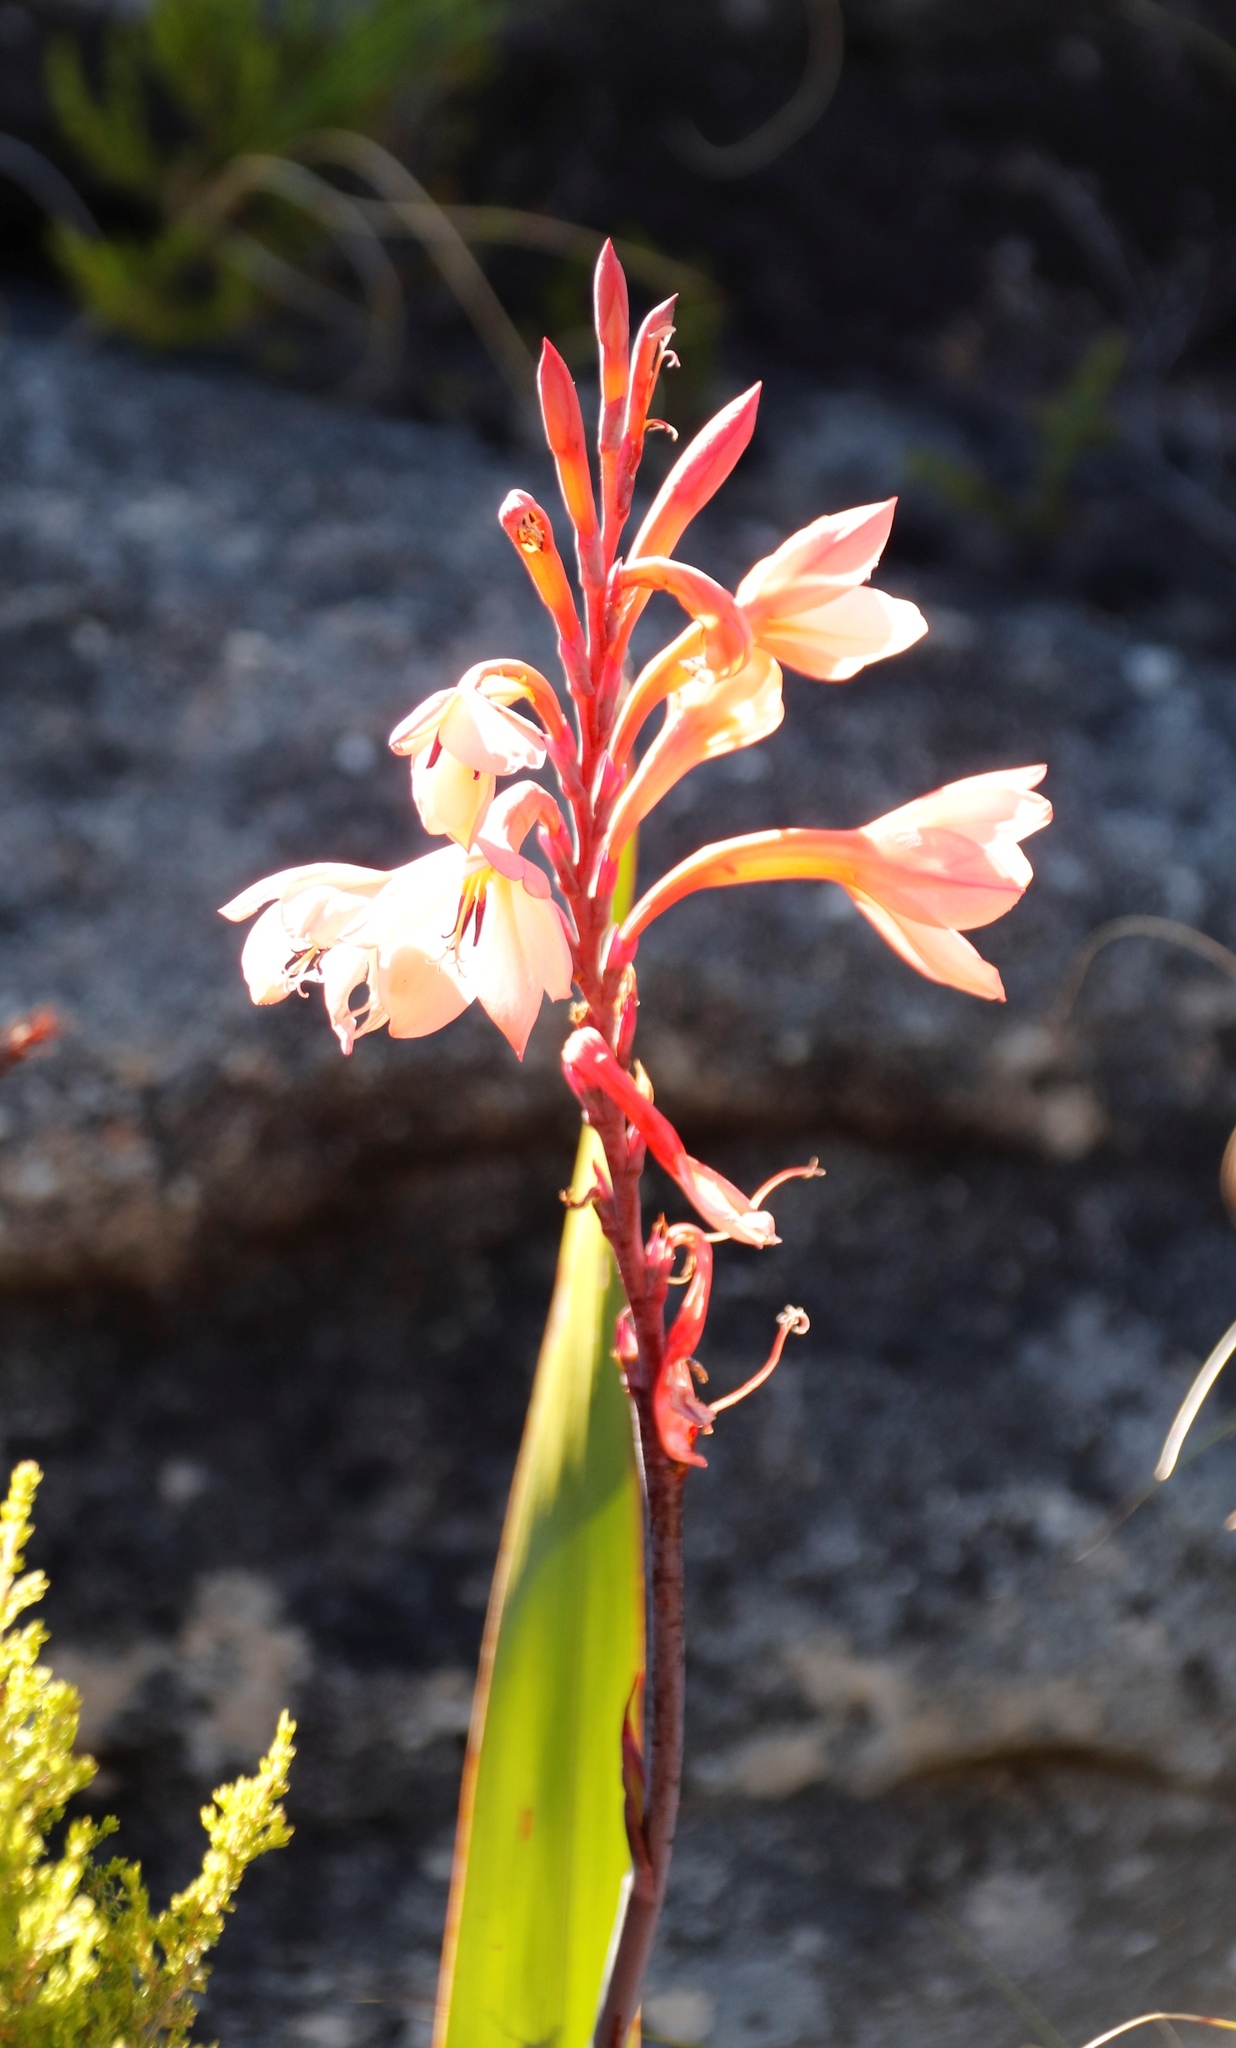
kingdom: Plantae
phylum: Tracheophyta
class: Liliopsida
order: Asparagales
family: Iridaceae
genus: Watsonia
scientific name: Watsonia tabularis
